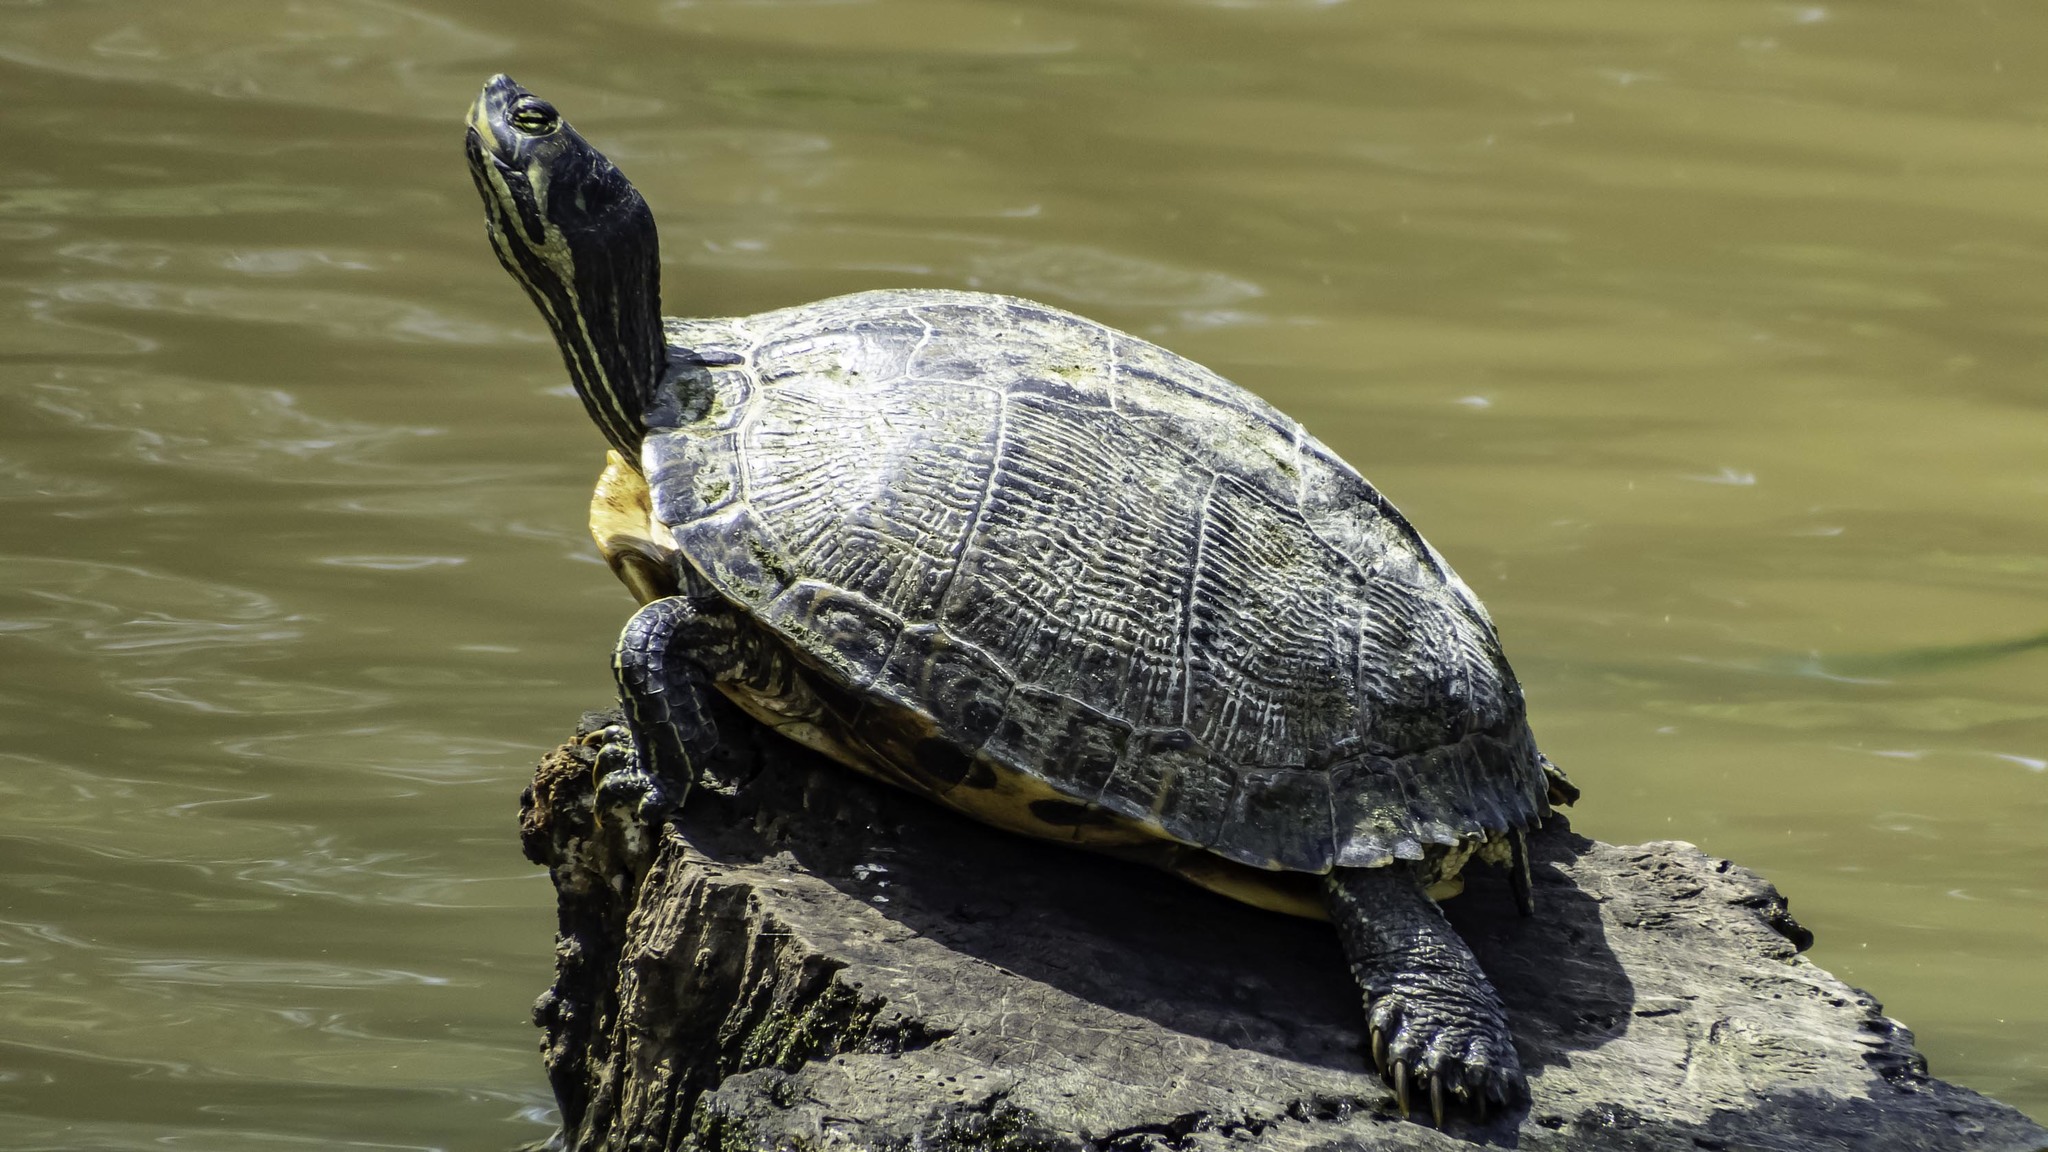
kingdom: Animalia
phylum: Chordata
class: Testudines
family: Emydidae
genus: Trachemys
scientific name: Trachemys scripta
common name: Slider
